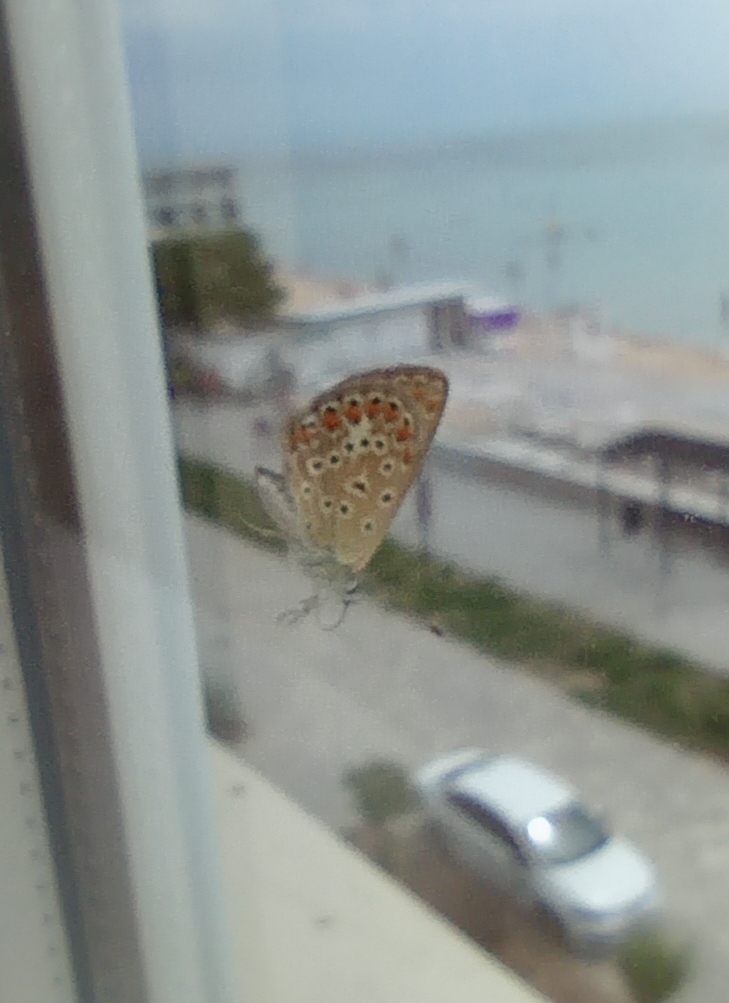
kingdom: Animalia
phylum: Arthropoda
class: Insecta
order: Lepidoptera
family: Lycaenidae
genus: Polyommatus
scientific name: Polyommatus icarus
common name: Common blue
